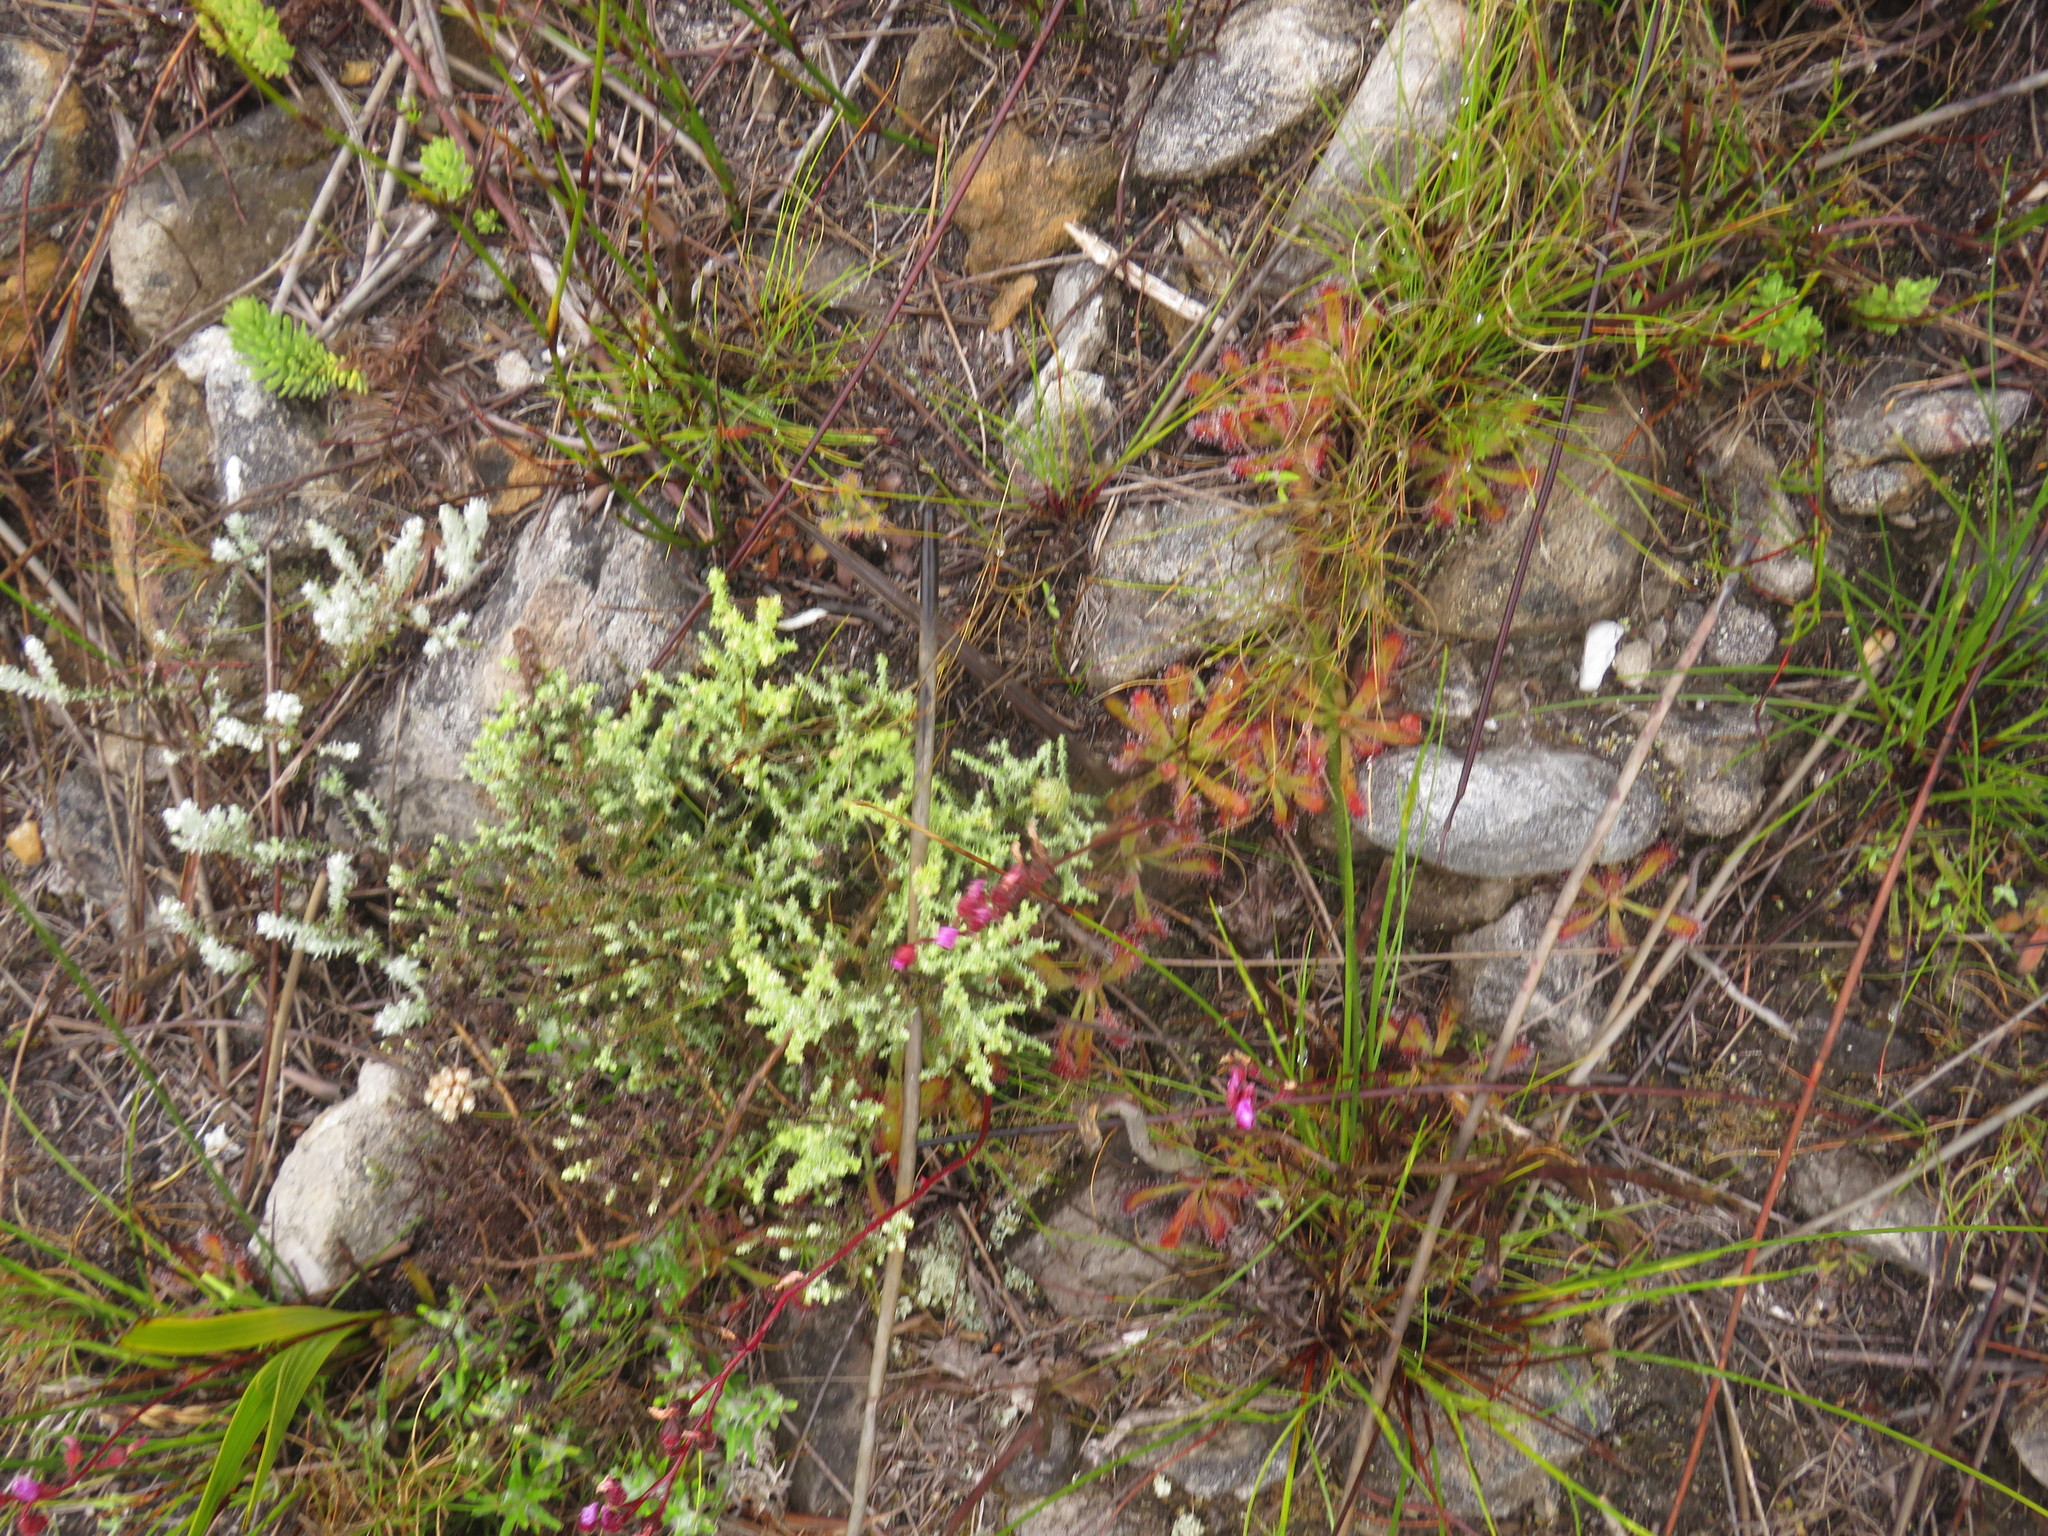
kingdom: Plantae
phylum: Tracheophyta
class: Magnoliopsida
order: Caryophyllales
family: Droseraceae
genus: Drosera
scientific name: Drosera ericgreenii
